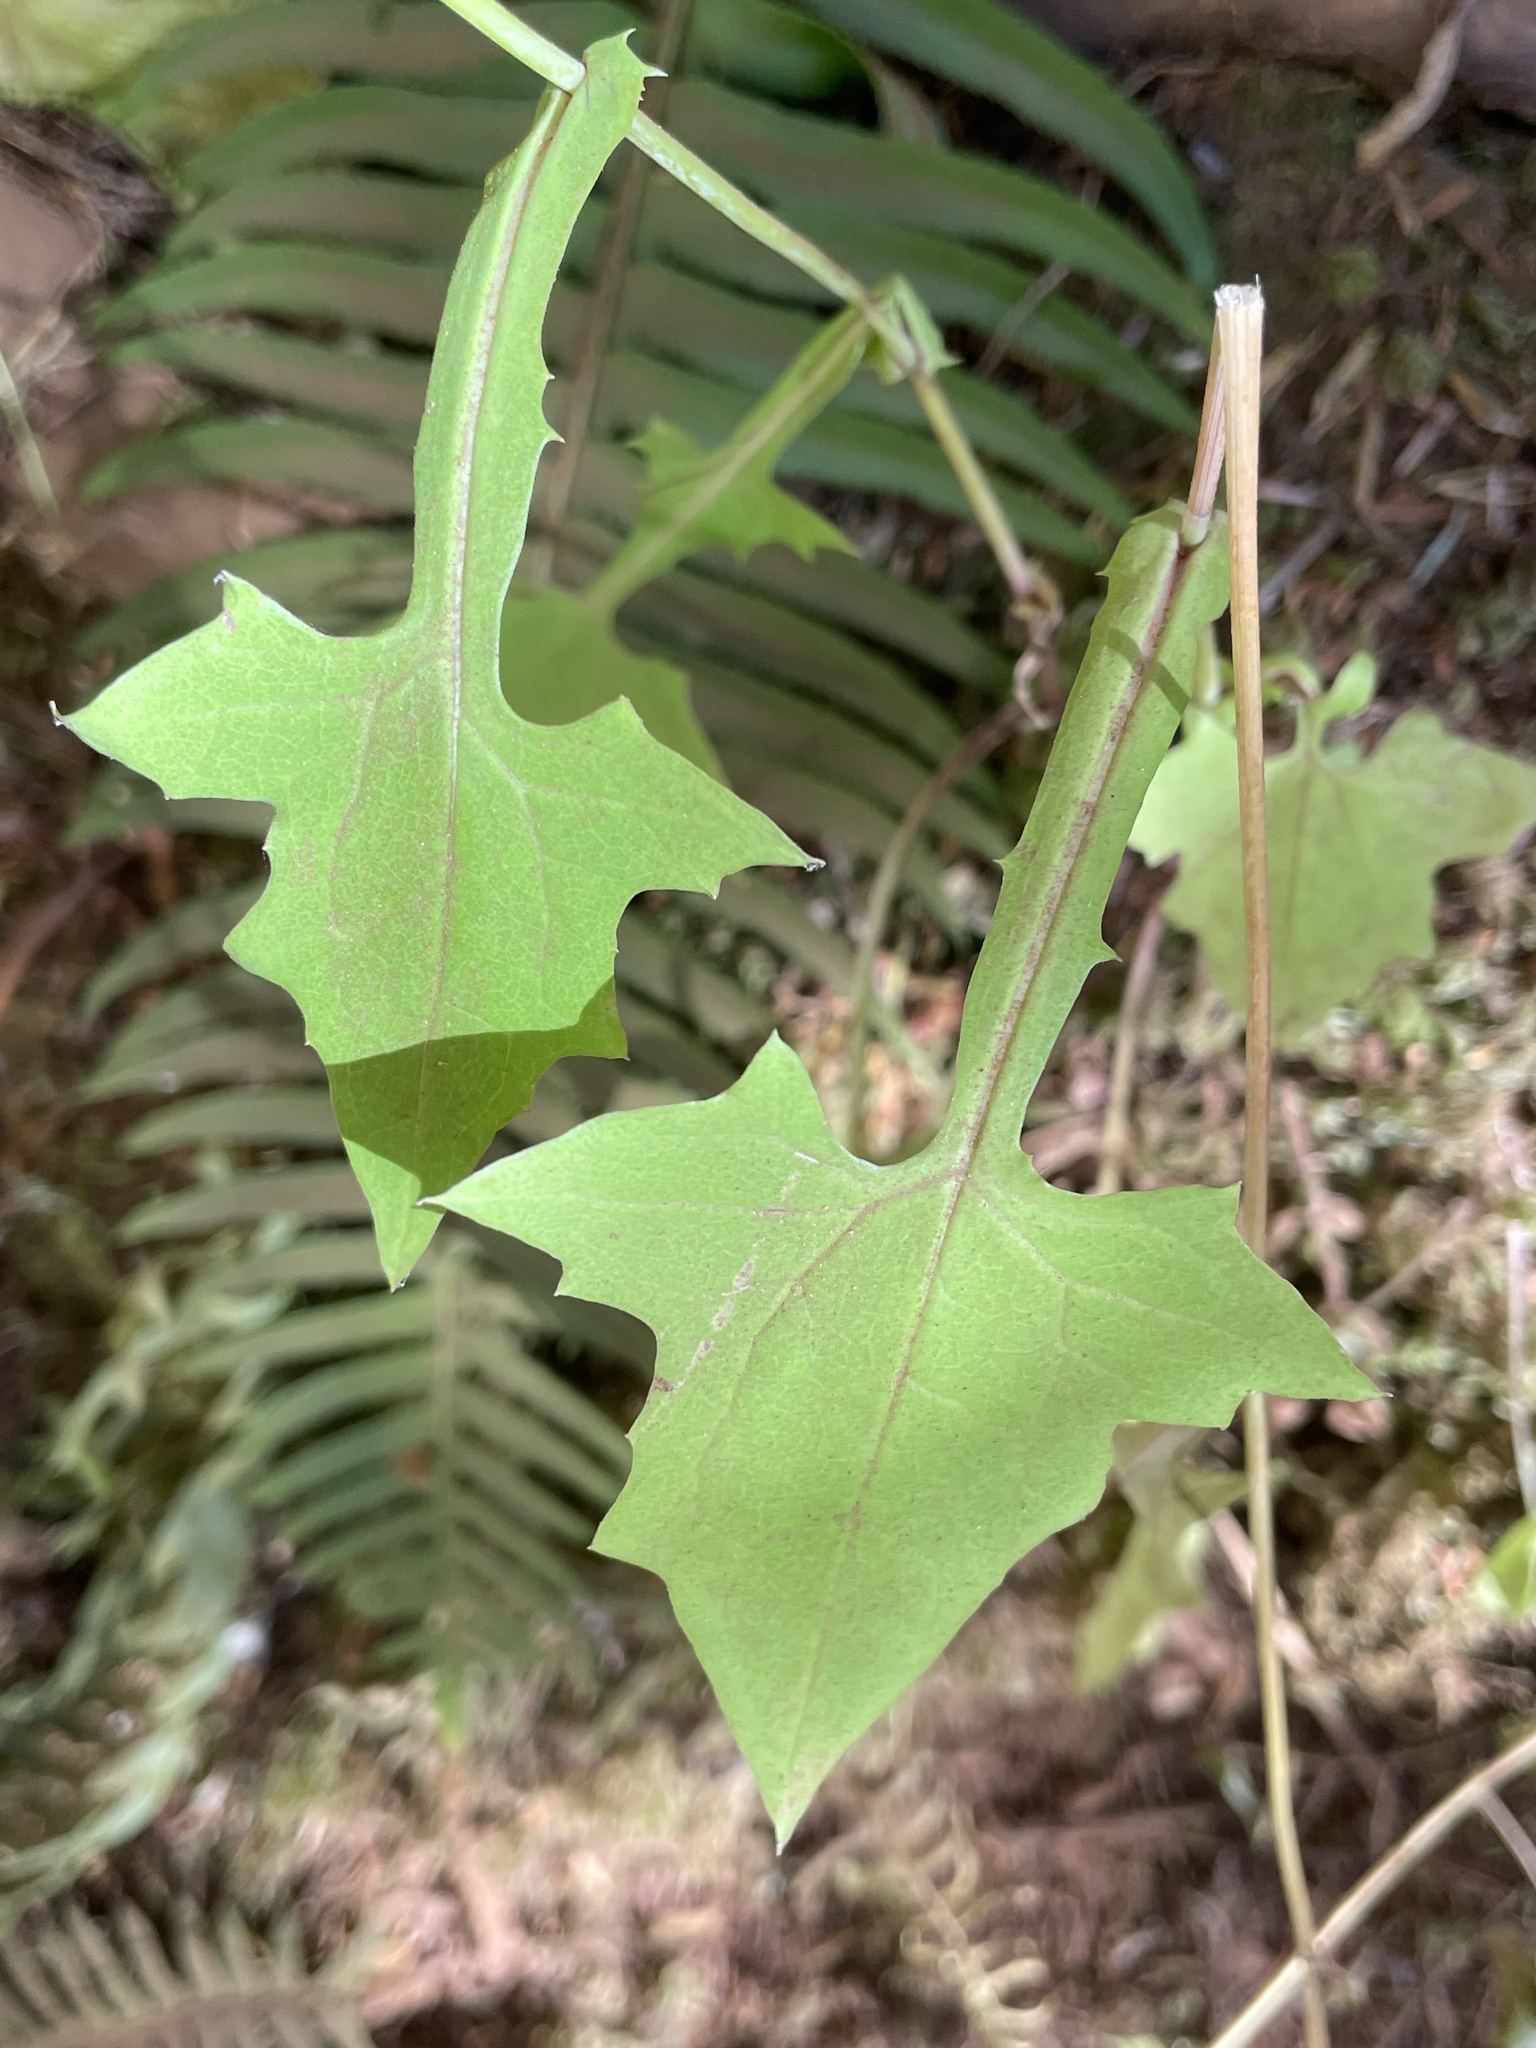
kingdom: Plantae
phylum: Tracheophyta
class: Magnoliopsida
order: Asterales
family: Asteraceae
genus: Mycelis
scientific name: Mycelis muralis
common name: Wall lettuce
